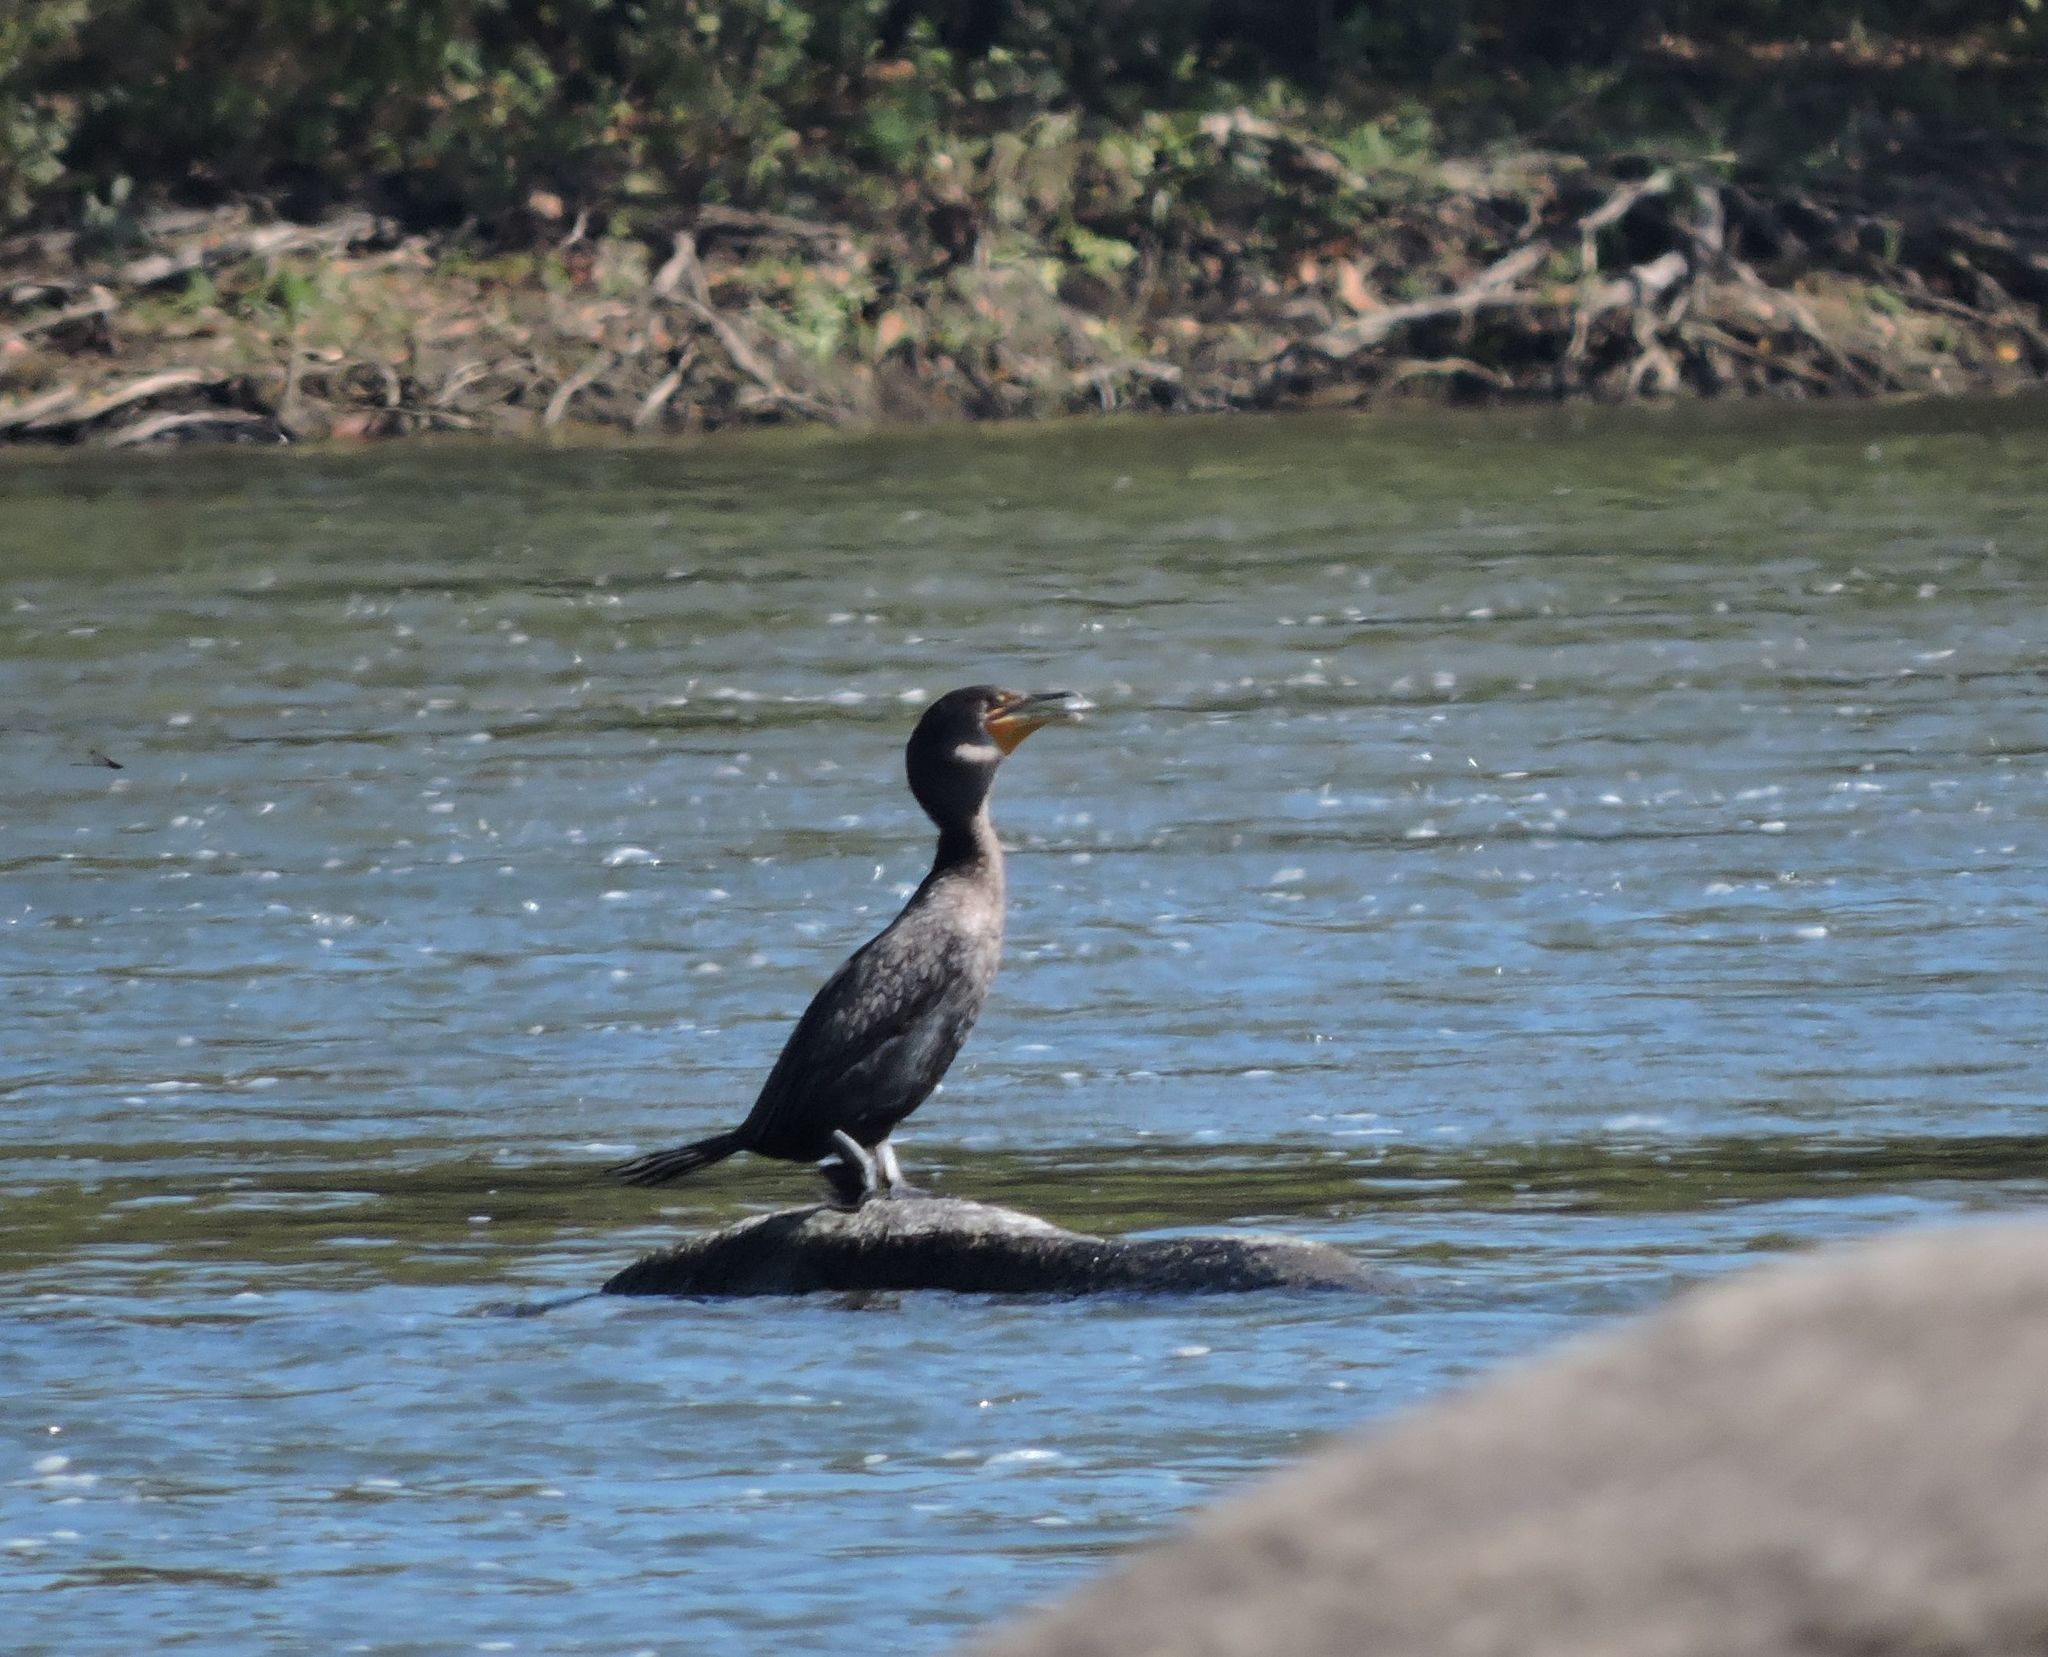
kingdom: Animalia
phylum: Chordata
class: Aves
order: Suliformes
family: Phalacrocoracidae
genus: Phalacrocorax
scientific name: Phalacrocorax auritus
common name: Double-crested cormorant
